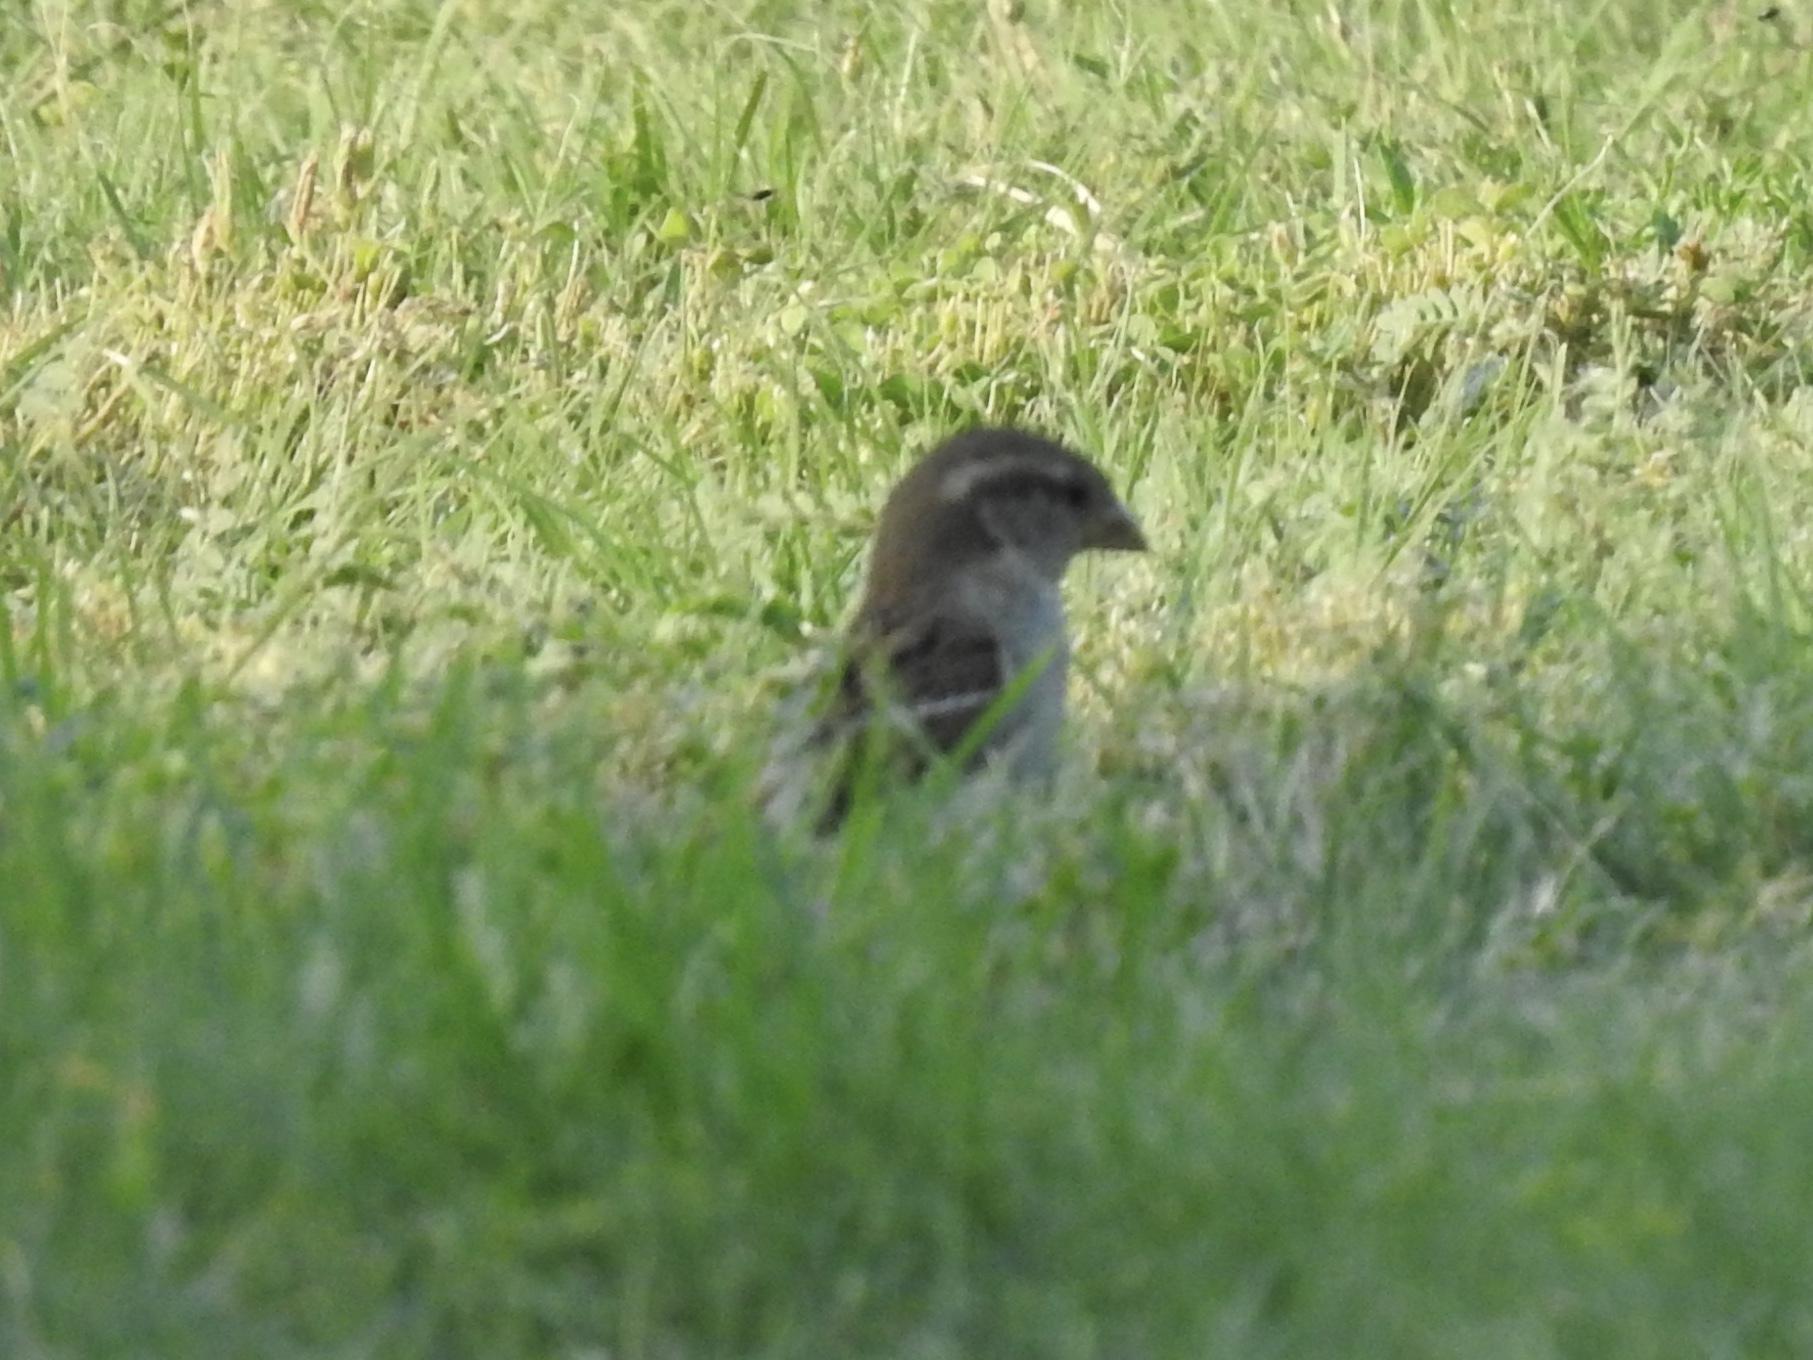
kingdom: Animalia
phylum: Chordata
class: Aves
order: Passeriformes
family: Passeridae
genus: Passer
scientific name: Passer domesticus
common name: House sparrow
